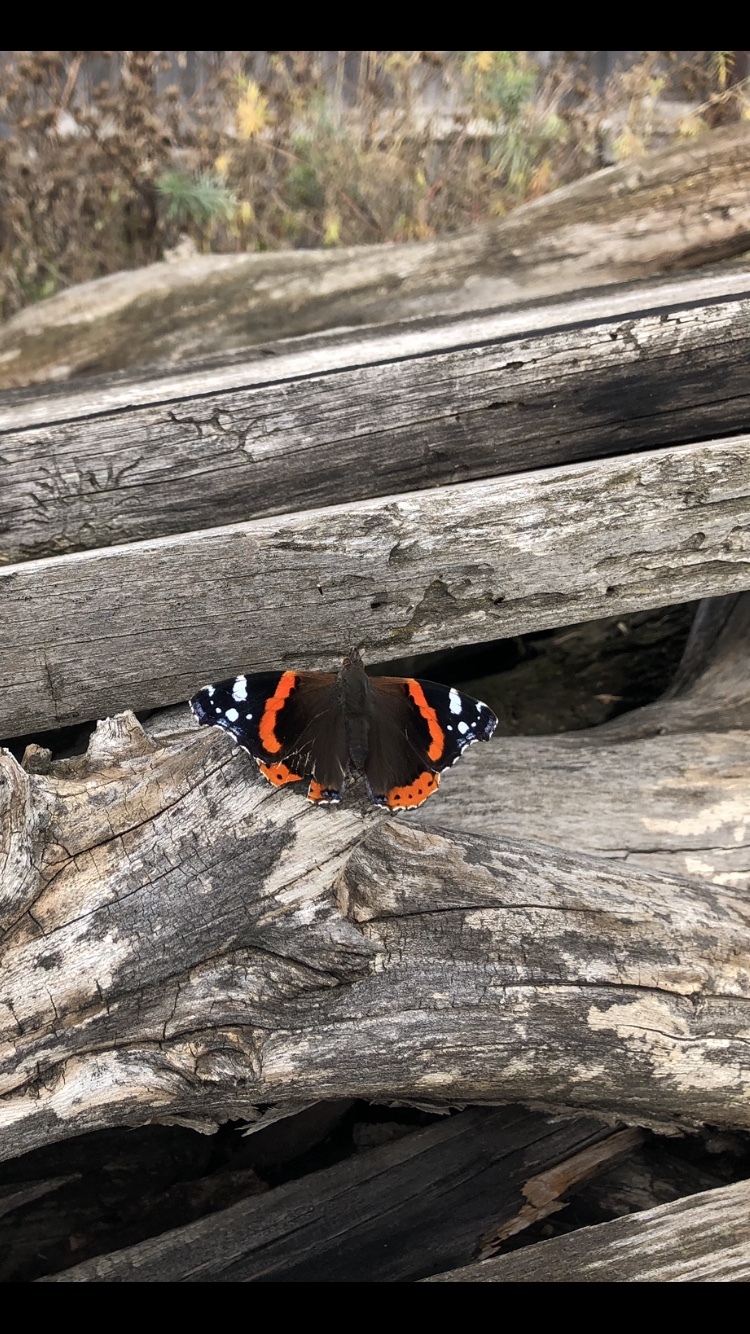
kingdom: Animalia
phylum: Arthropoda
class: Insecta
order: Lepidoptera
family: Nymphalidae
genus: Vanessa
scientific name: Vanessa atalanta
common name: Red admiral
